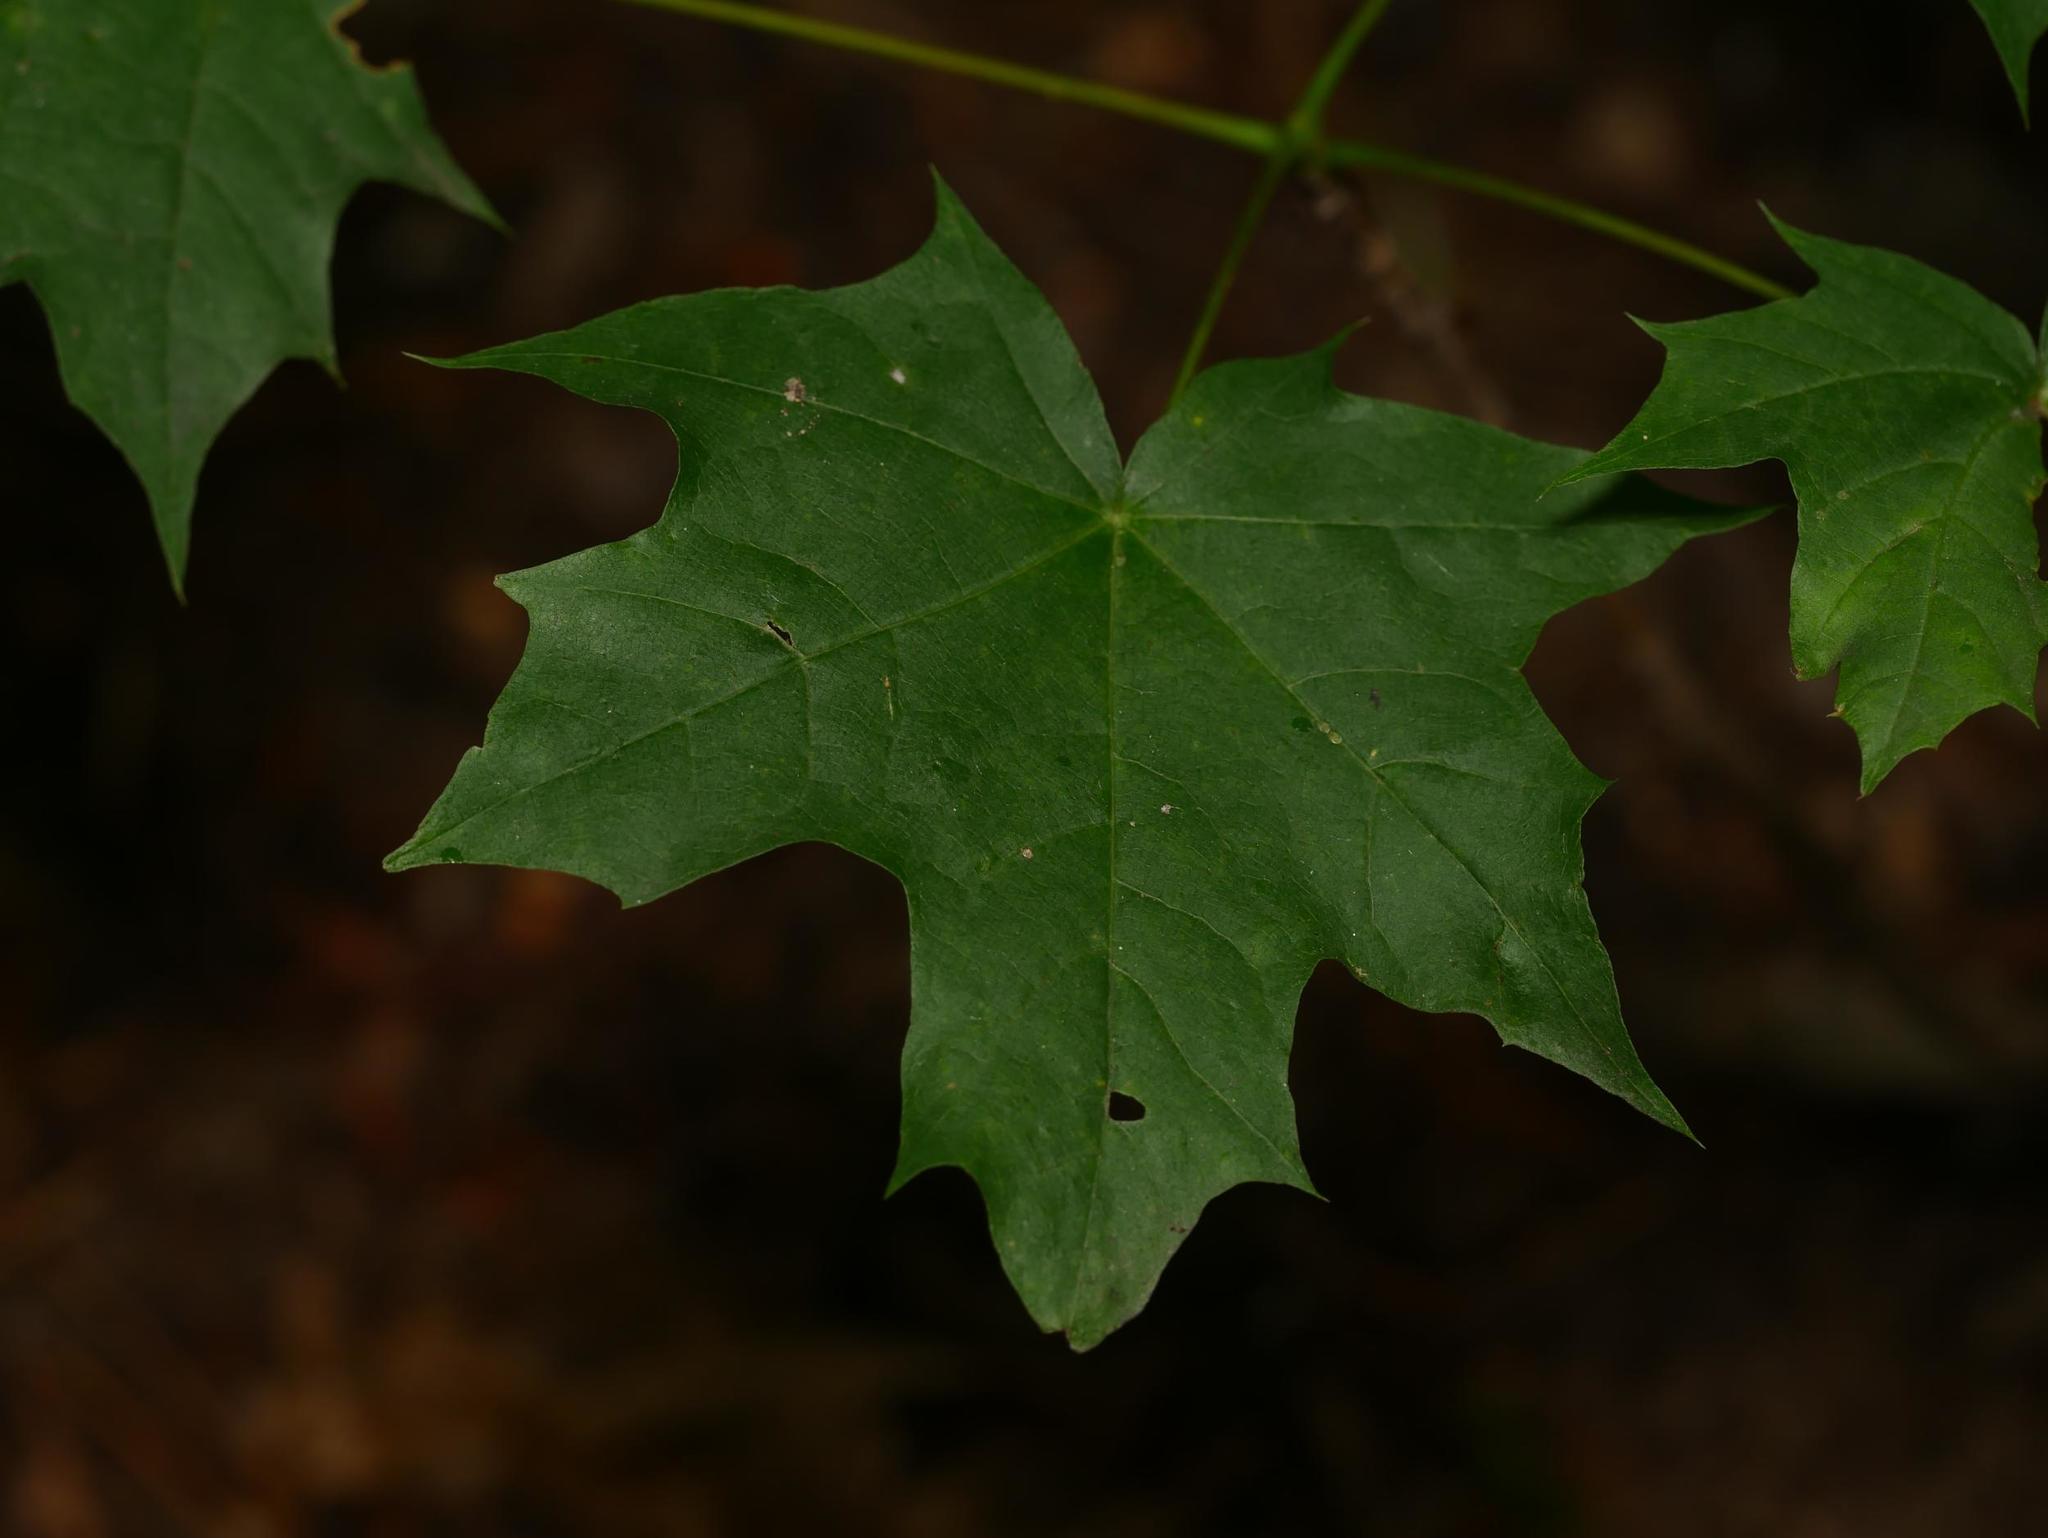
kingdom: Plantae
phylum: Tracheophyta
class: Magnoliopsida
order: Sapindales
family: Sapindaceae
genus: Acer
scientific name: Acer platanoides
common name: Norway maple
